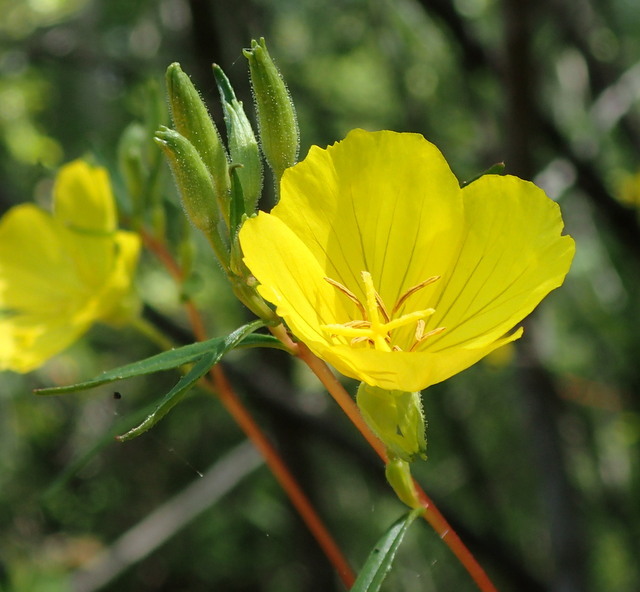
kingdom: Plantae
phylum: Tracheophyta
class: Magnoliopsida
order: Myrtales
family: Onagraceae
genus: Oenothera
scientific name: Oenothera fruticosa
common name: Southern sundrops
